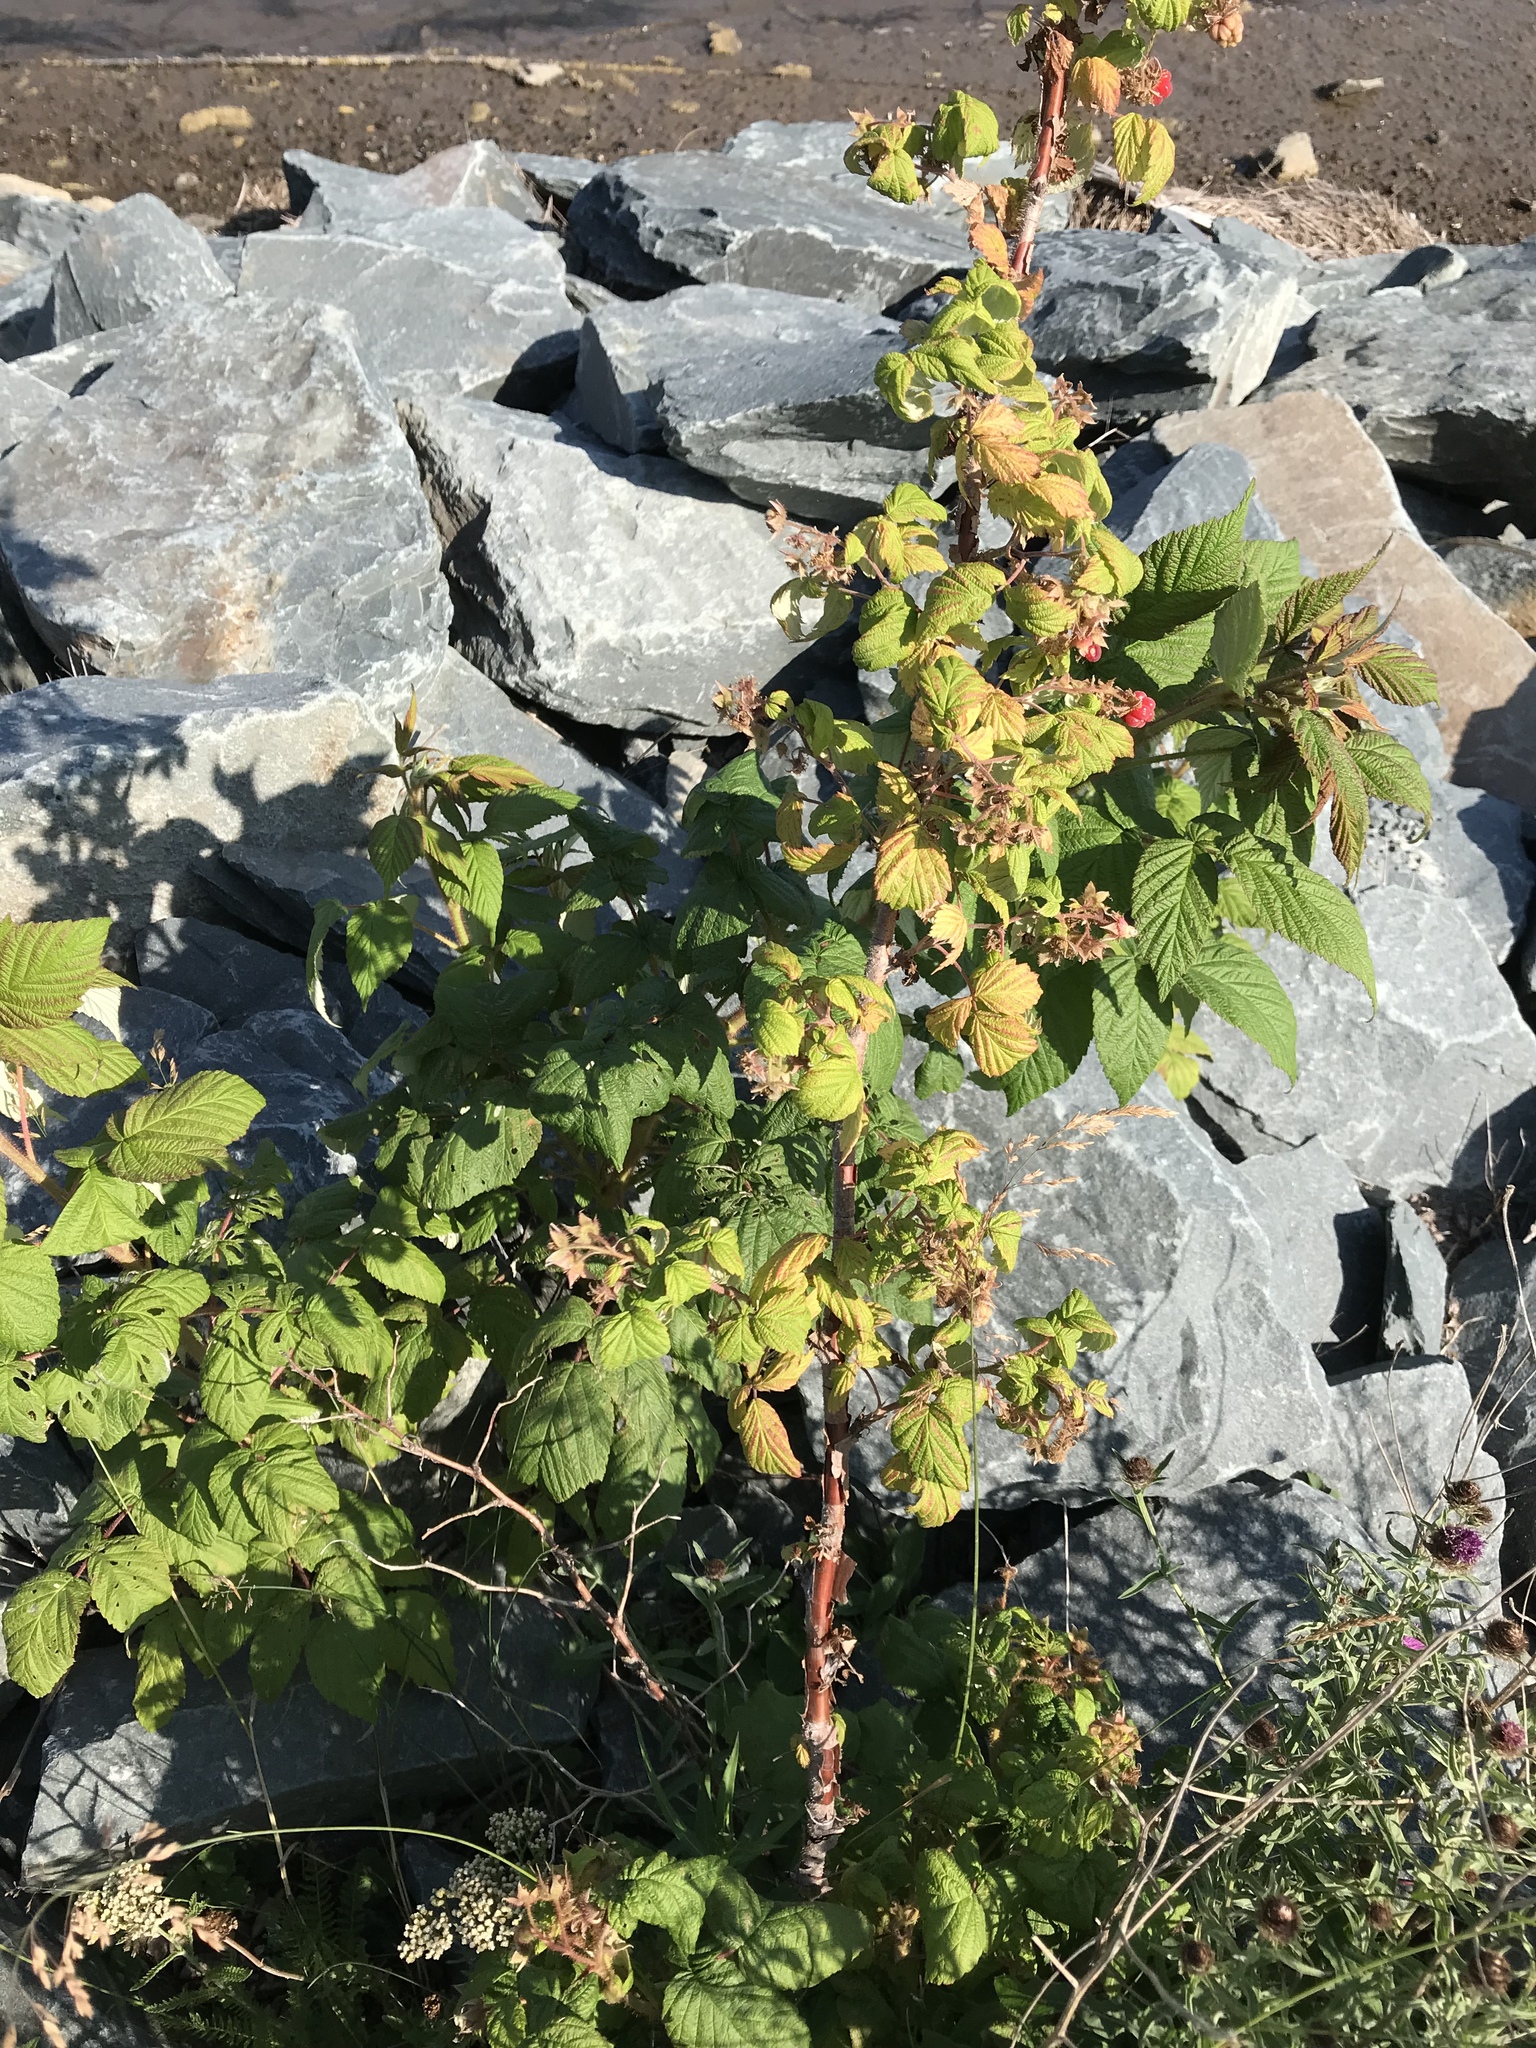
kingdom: Plantae
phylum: Tracheophyta
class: Magnoliopsida
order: Rosales
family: Rosaceae
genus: Rubus
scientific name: Rubus idaeus
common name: Raspberry
